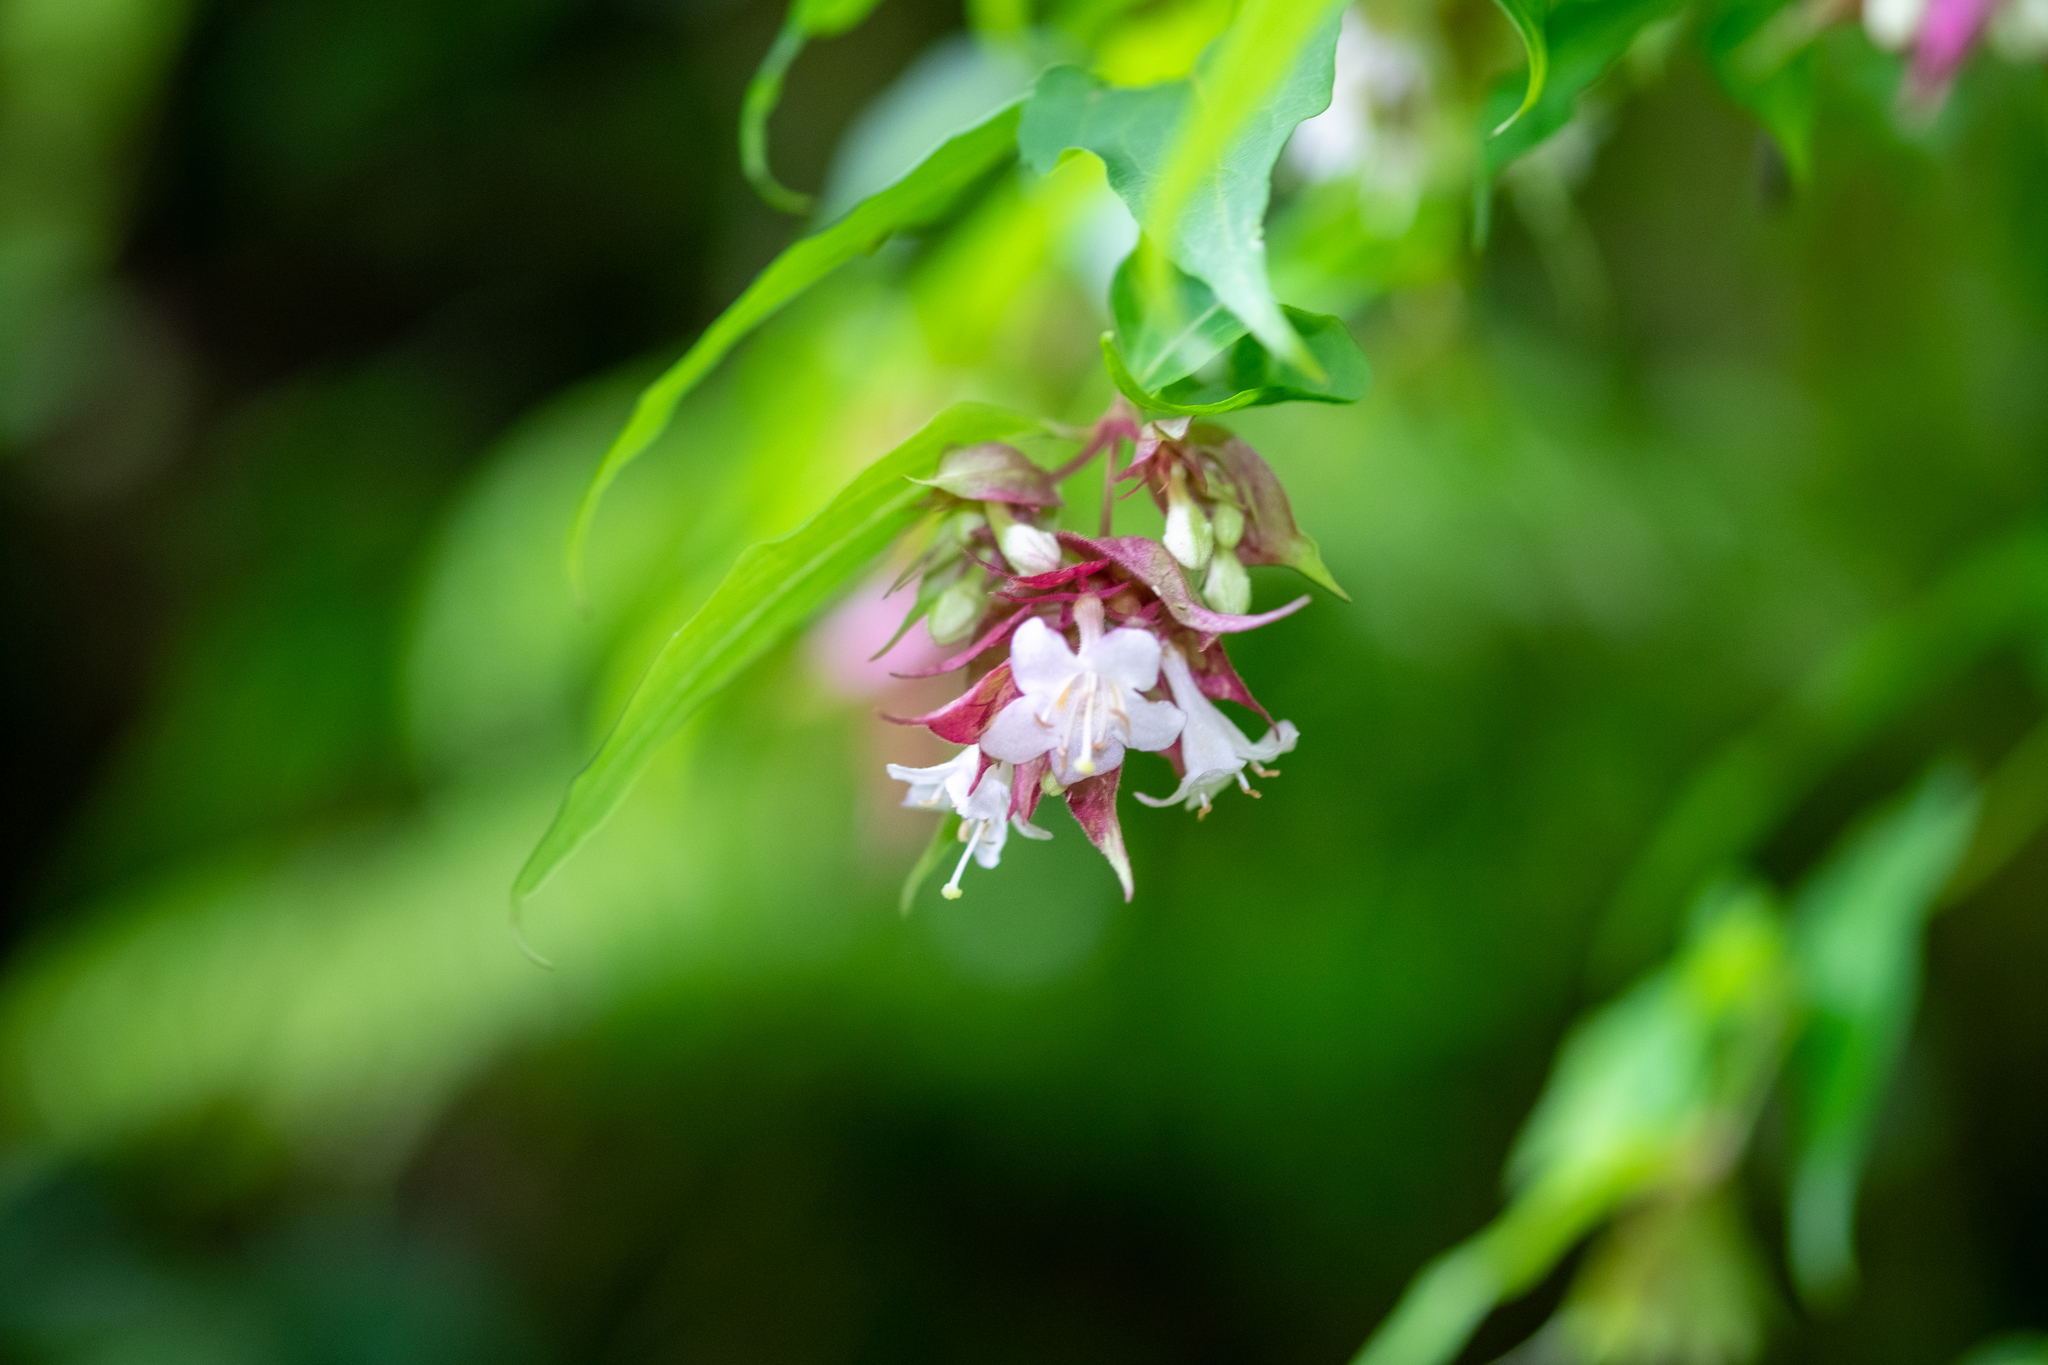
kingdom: Plantae
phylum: Tracheophyta
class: Magnoliopsida
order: Dipsacales
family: Caprifoliaceae
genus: Leycesteria
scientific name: Leycesteria formosa
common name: Himalayan honeysuckle
